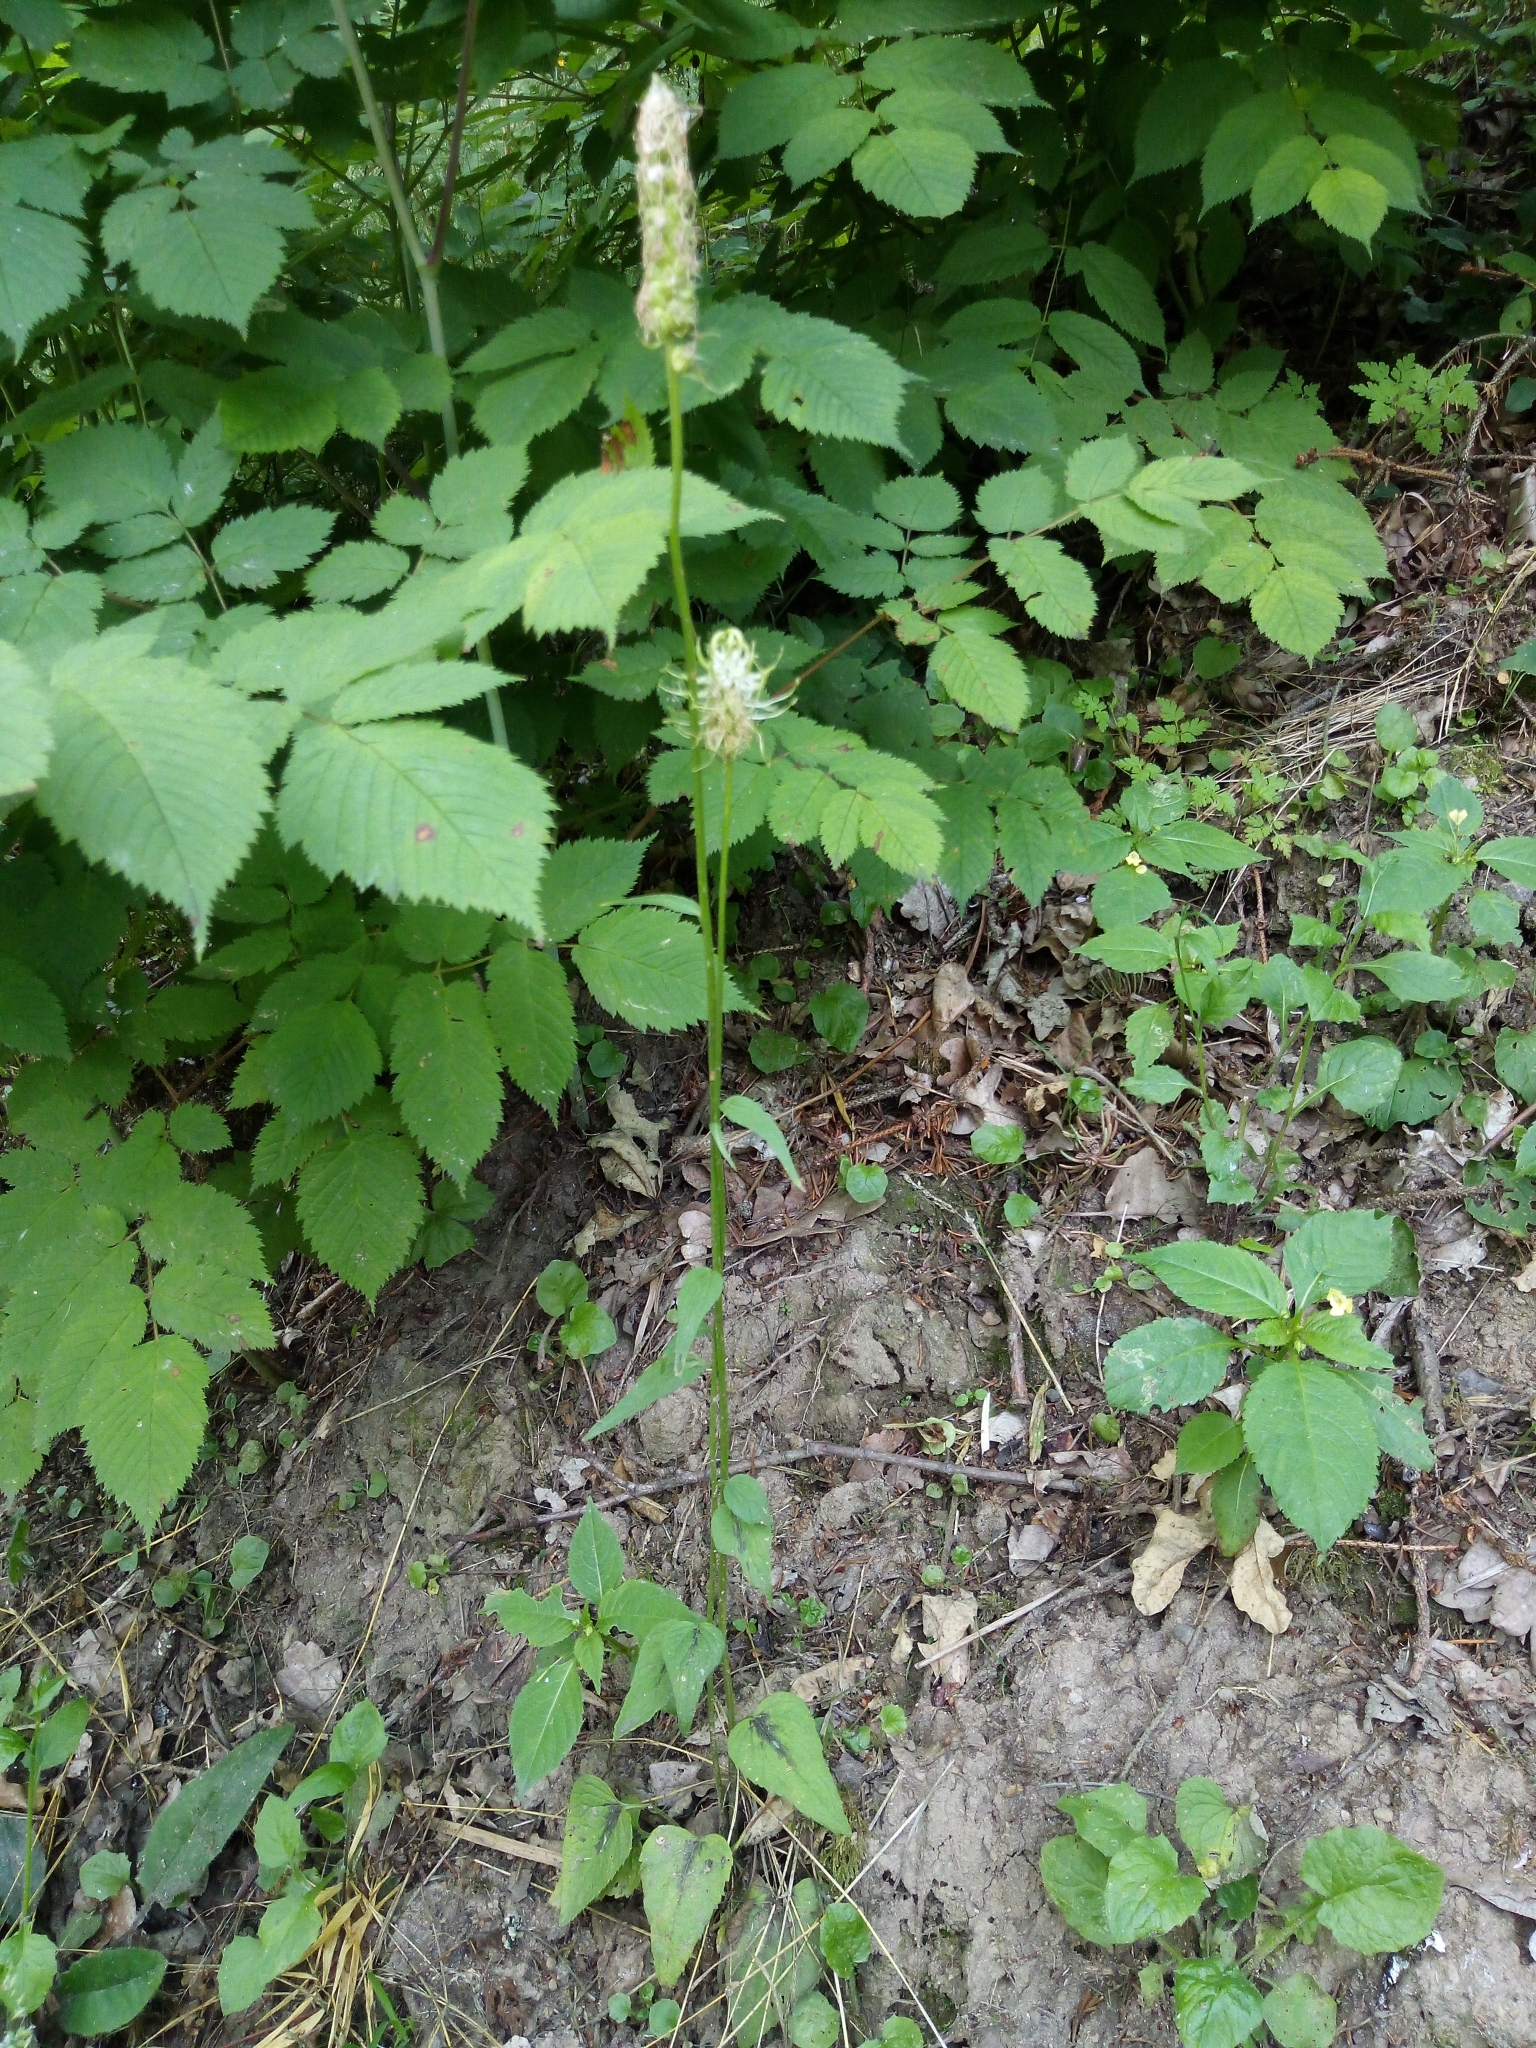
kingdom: Plantae
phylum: Tracheophyta
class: Magnoliopsida
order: Asterales
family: Campanulaceae
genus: Phyteuma
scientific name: Phyteuma spicatum
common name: Spiked rampion
